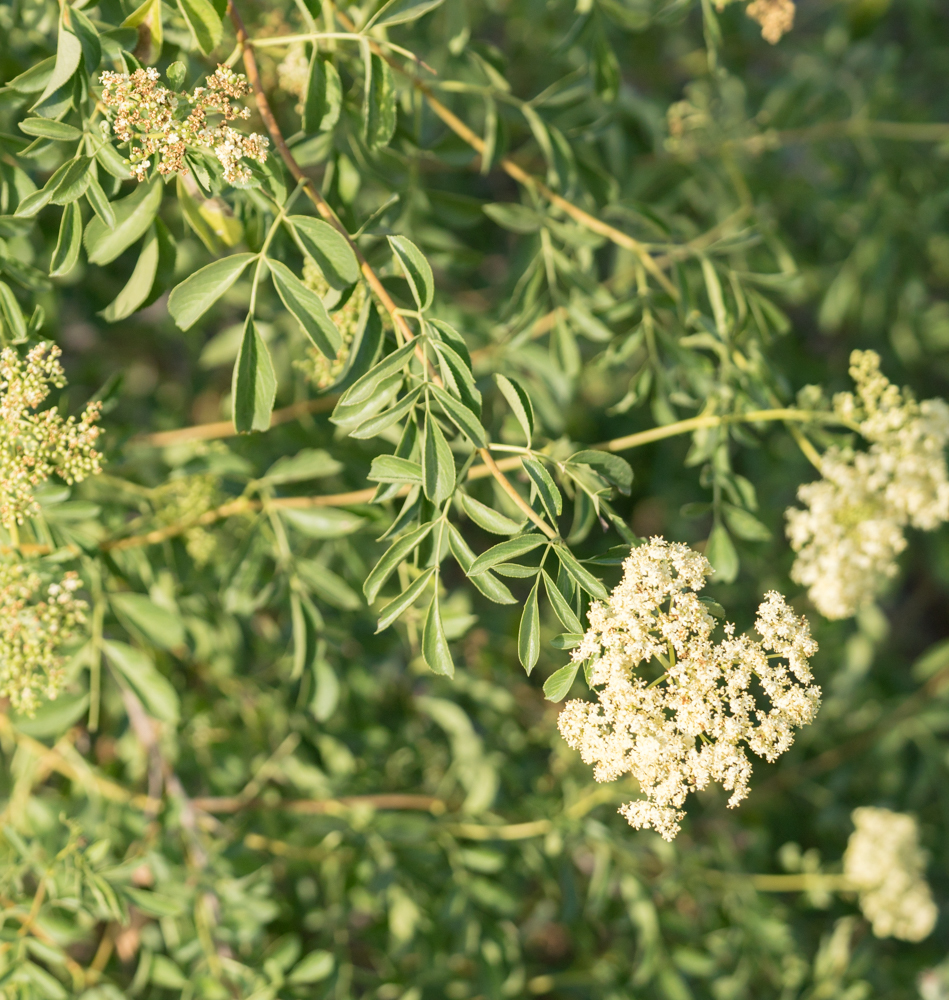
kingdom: Plantae
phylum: Tracheophyta
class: Magnoliopsida
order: Dipsacales
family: Viburnaceae
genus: Sambucus
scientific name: Sambucus cerulea
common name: Blue elder
